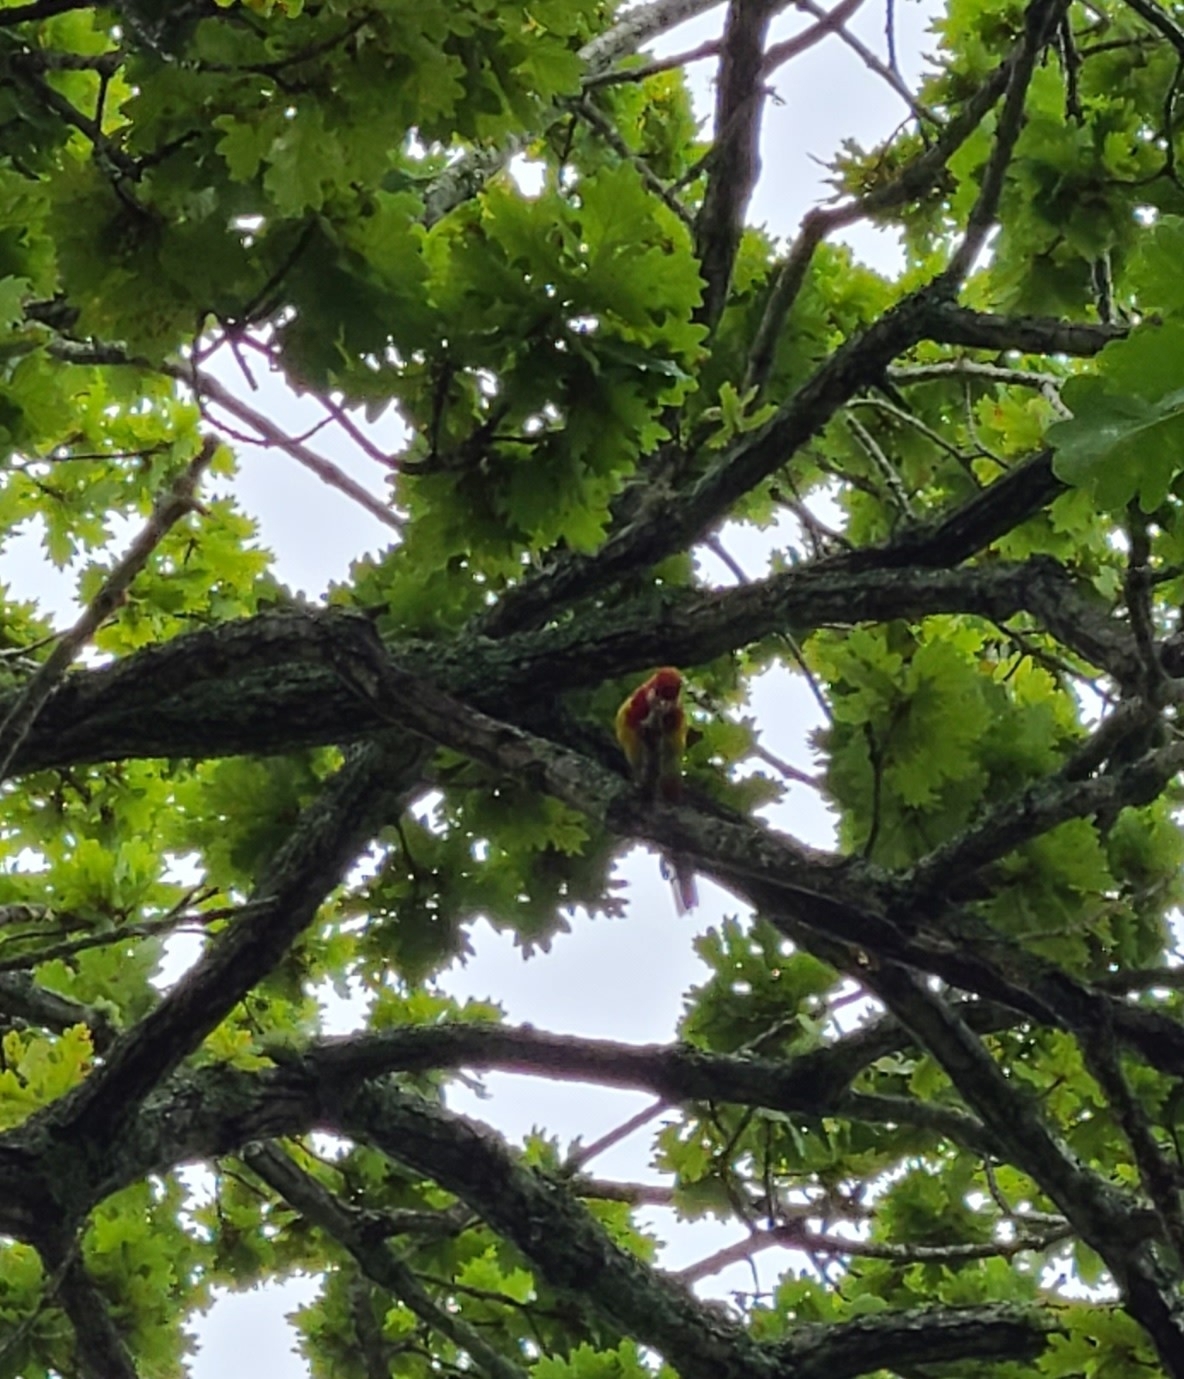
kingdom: Animalia
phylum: Chordata
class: Aves
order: Psittaciformes
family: Psittacidae
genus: Platycercus
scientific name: Platycercus eximius
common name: Eastern rosella
